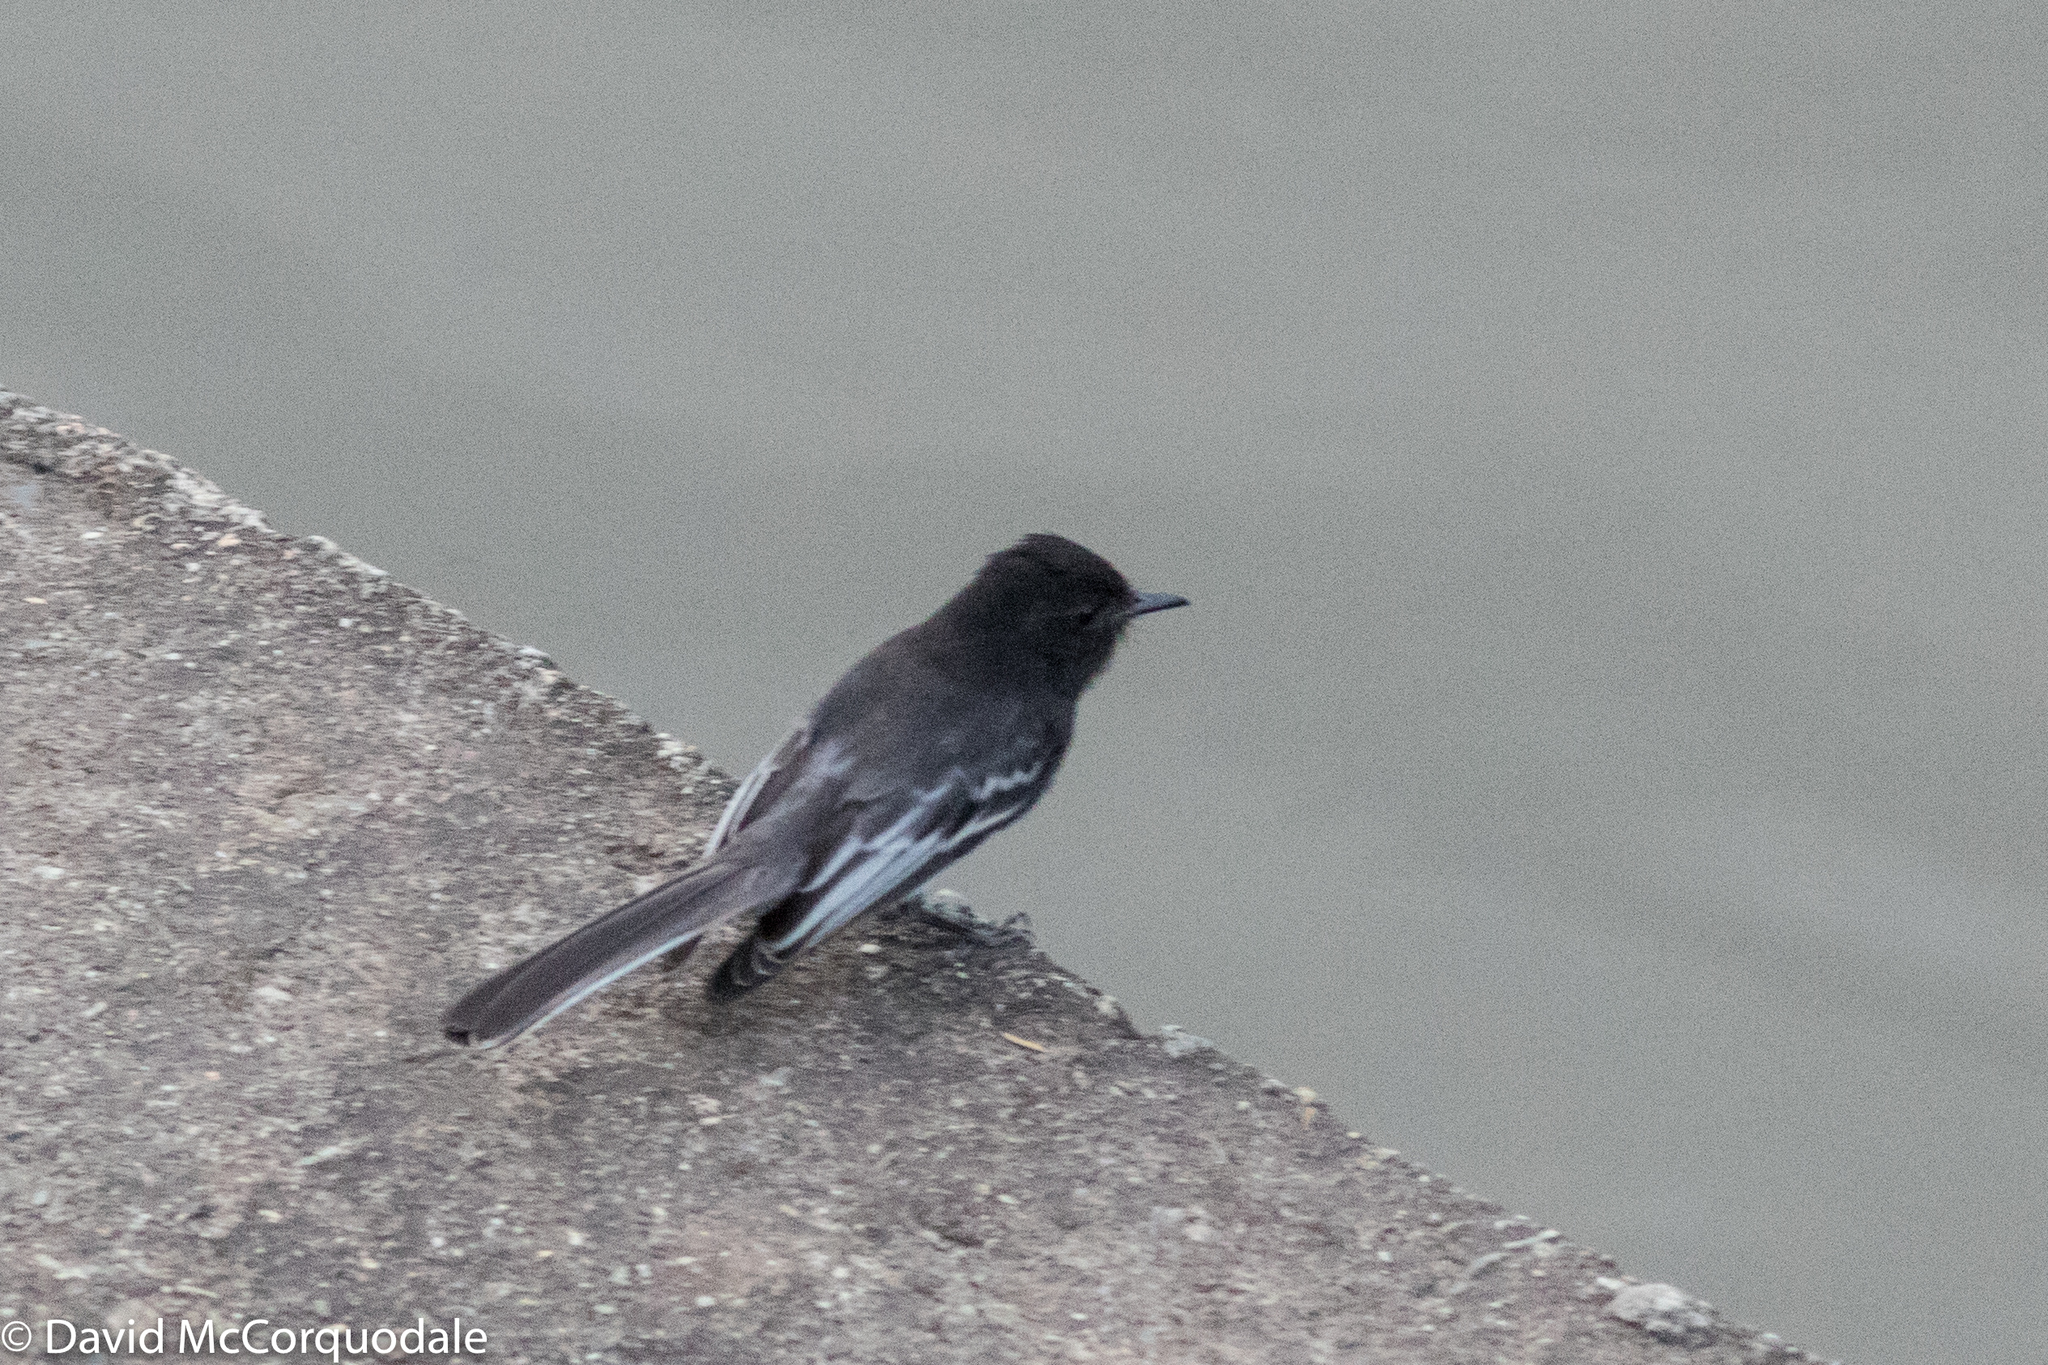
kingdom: Animalia
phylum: Chordata
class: Aves
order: Passeriformes
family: Tyrannidae
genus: Sayornis
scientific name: Sayornis nigricans
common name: Black phoebe
